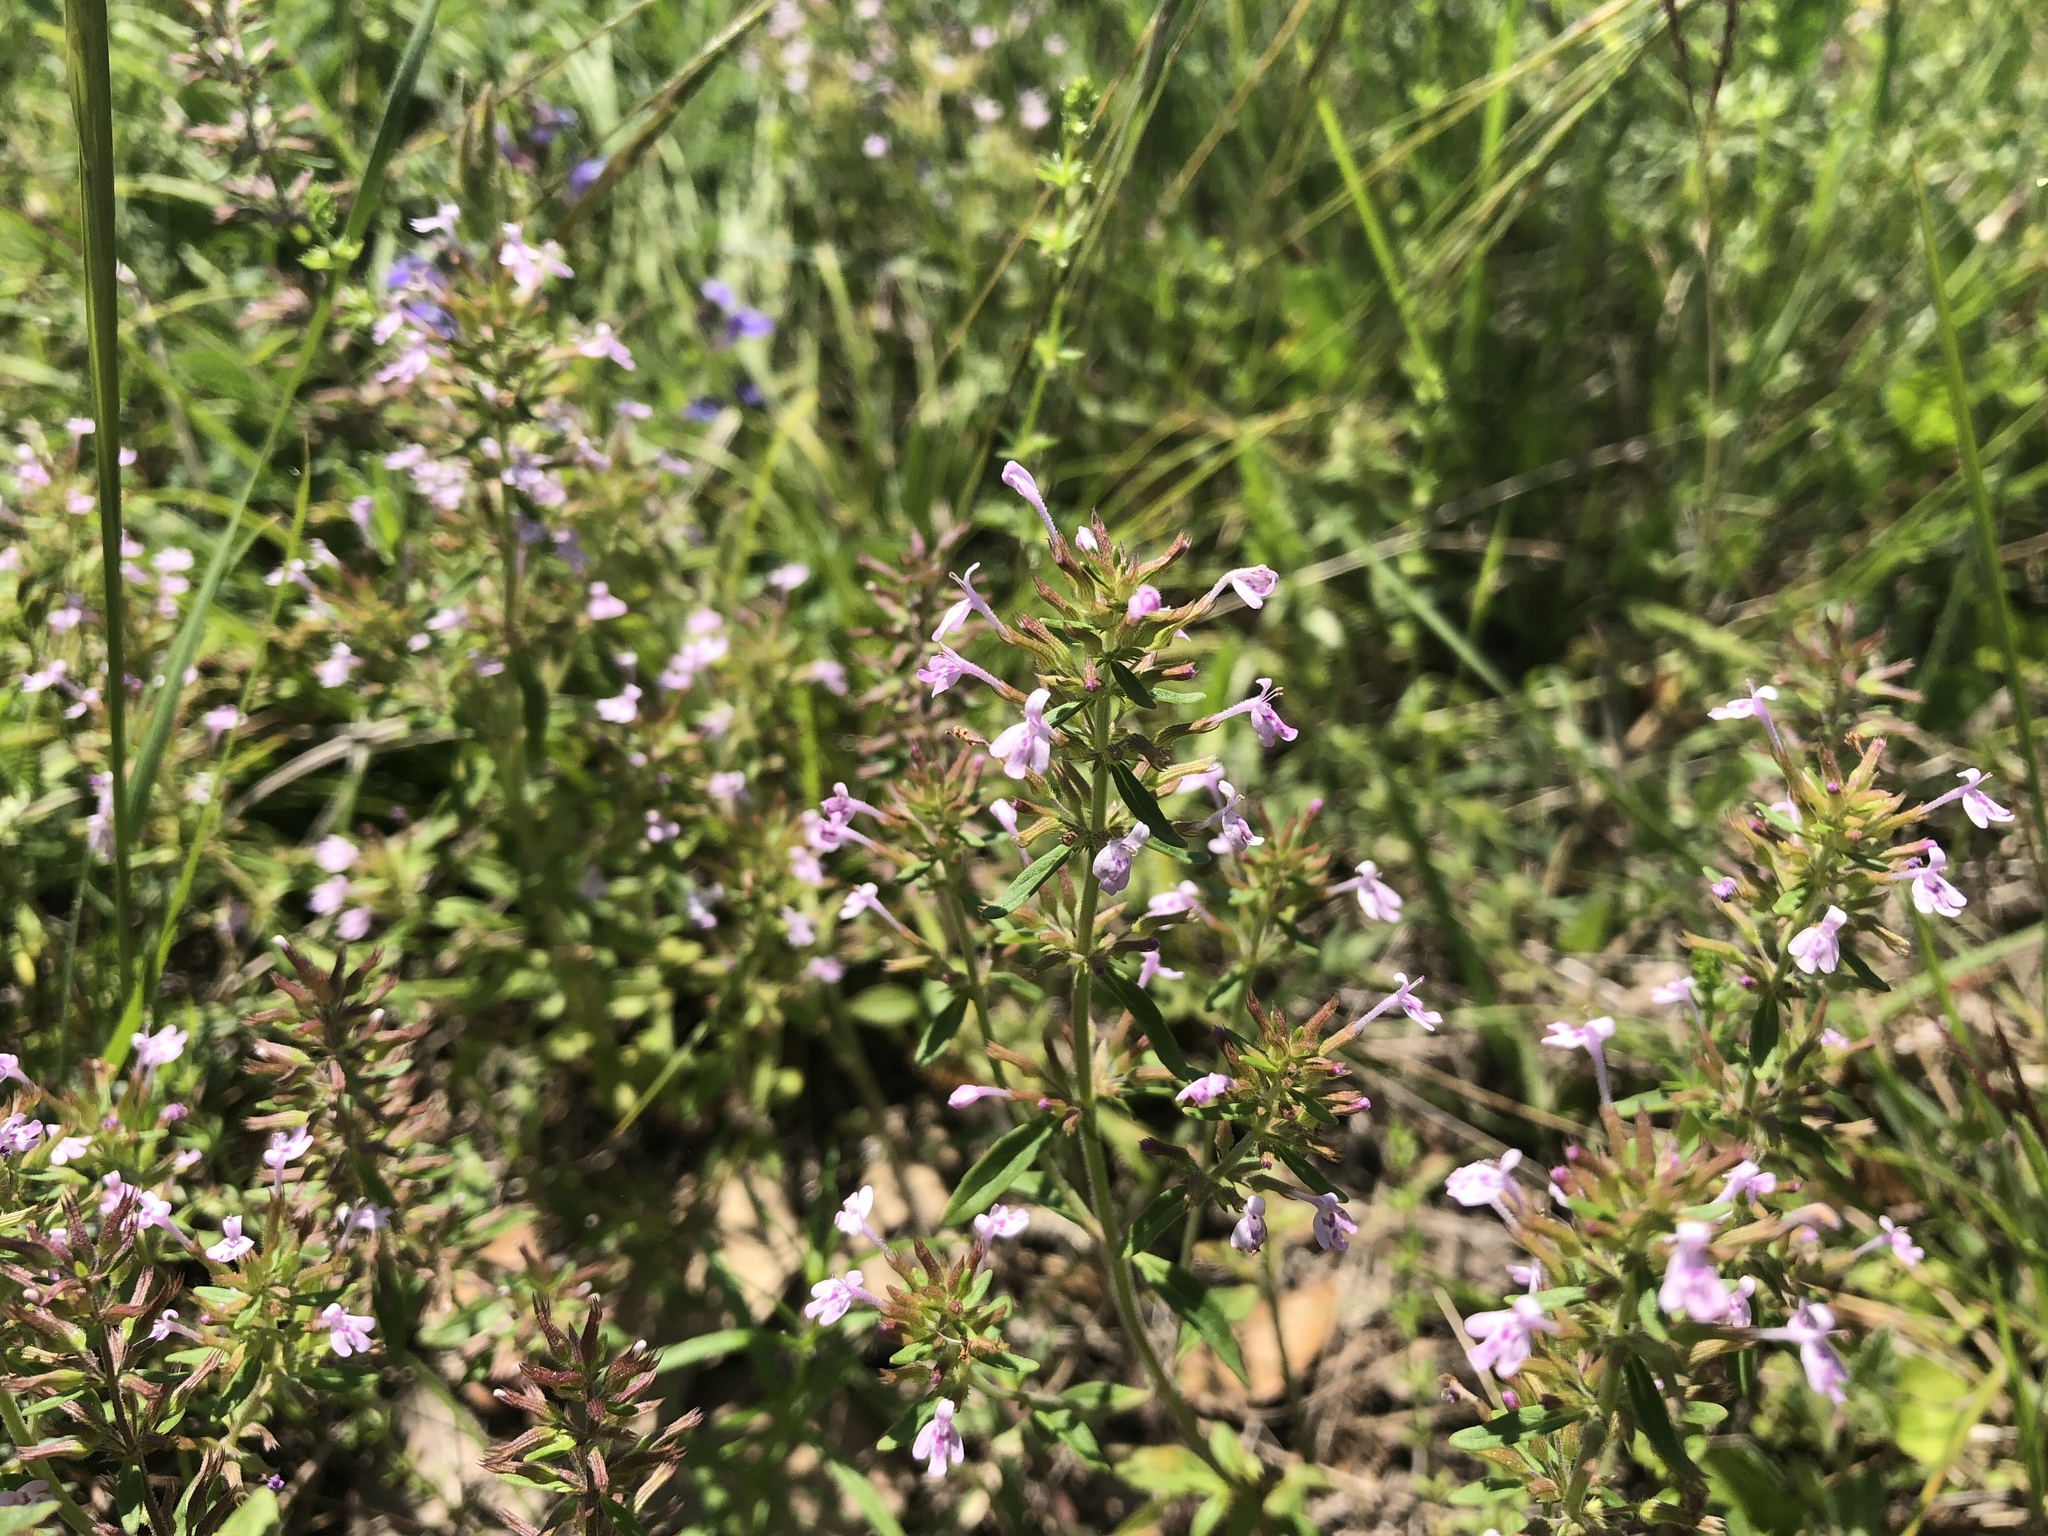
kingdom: Plantae
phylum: Tracheophyta
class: Magnoliopsida
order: Lamiales
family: Lamiaceae
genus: Hedeoma
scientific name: Hedeoma acinoides
